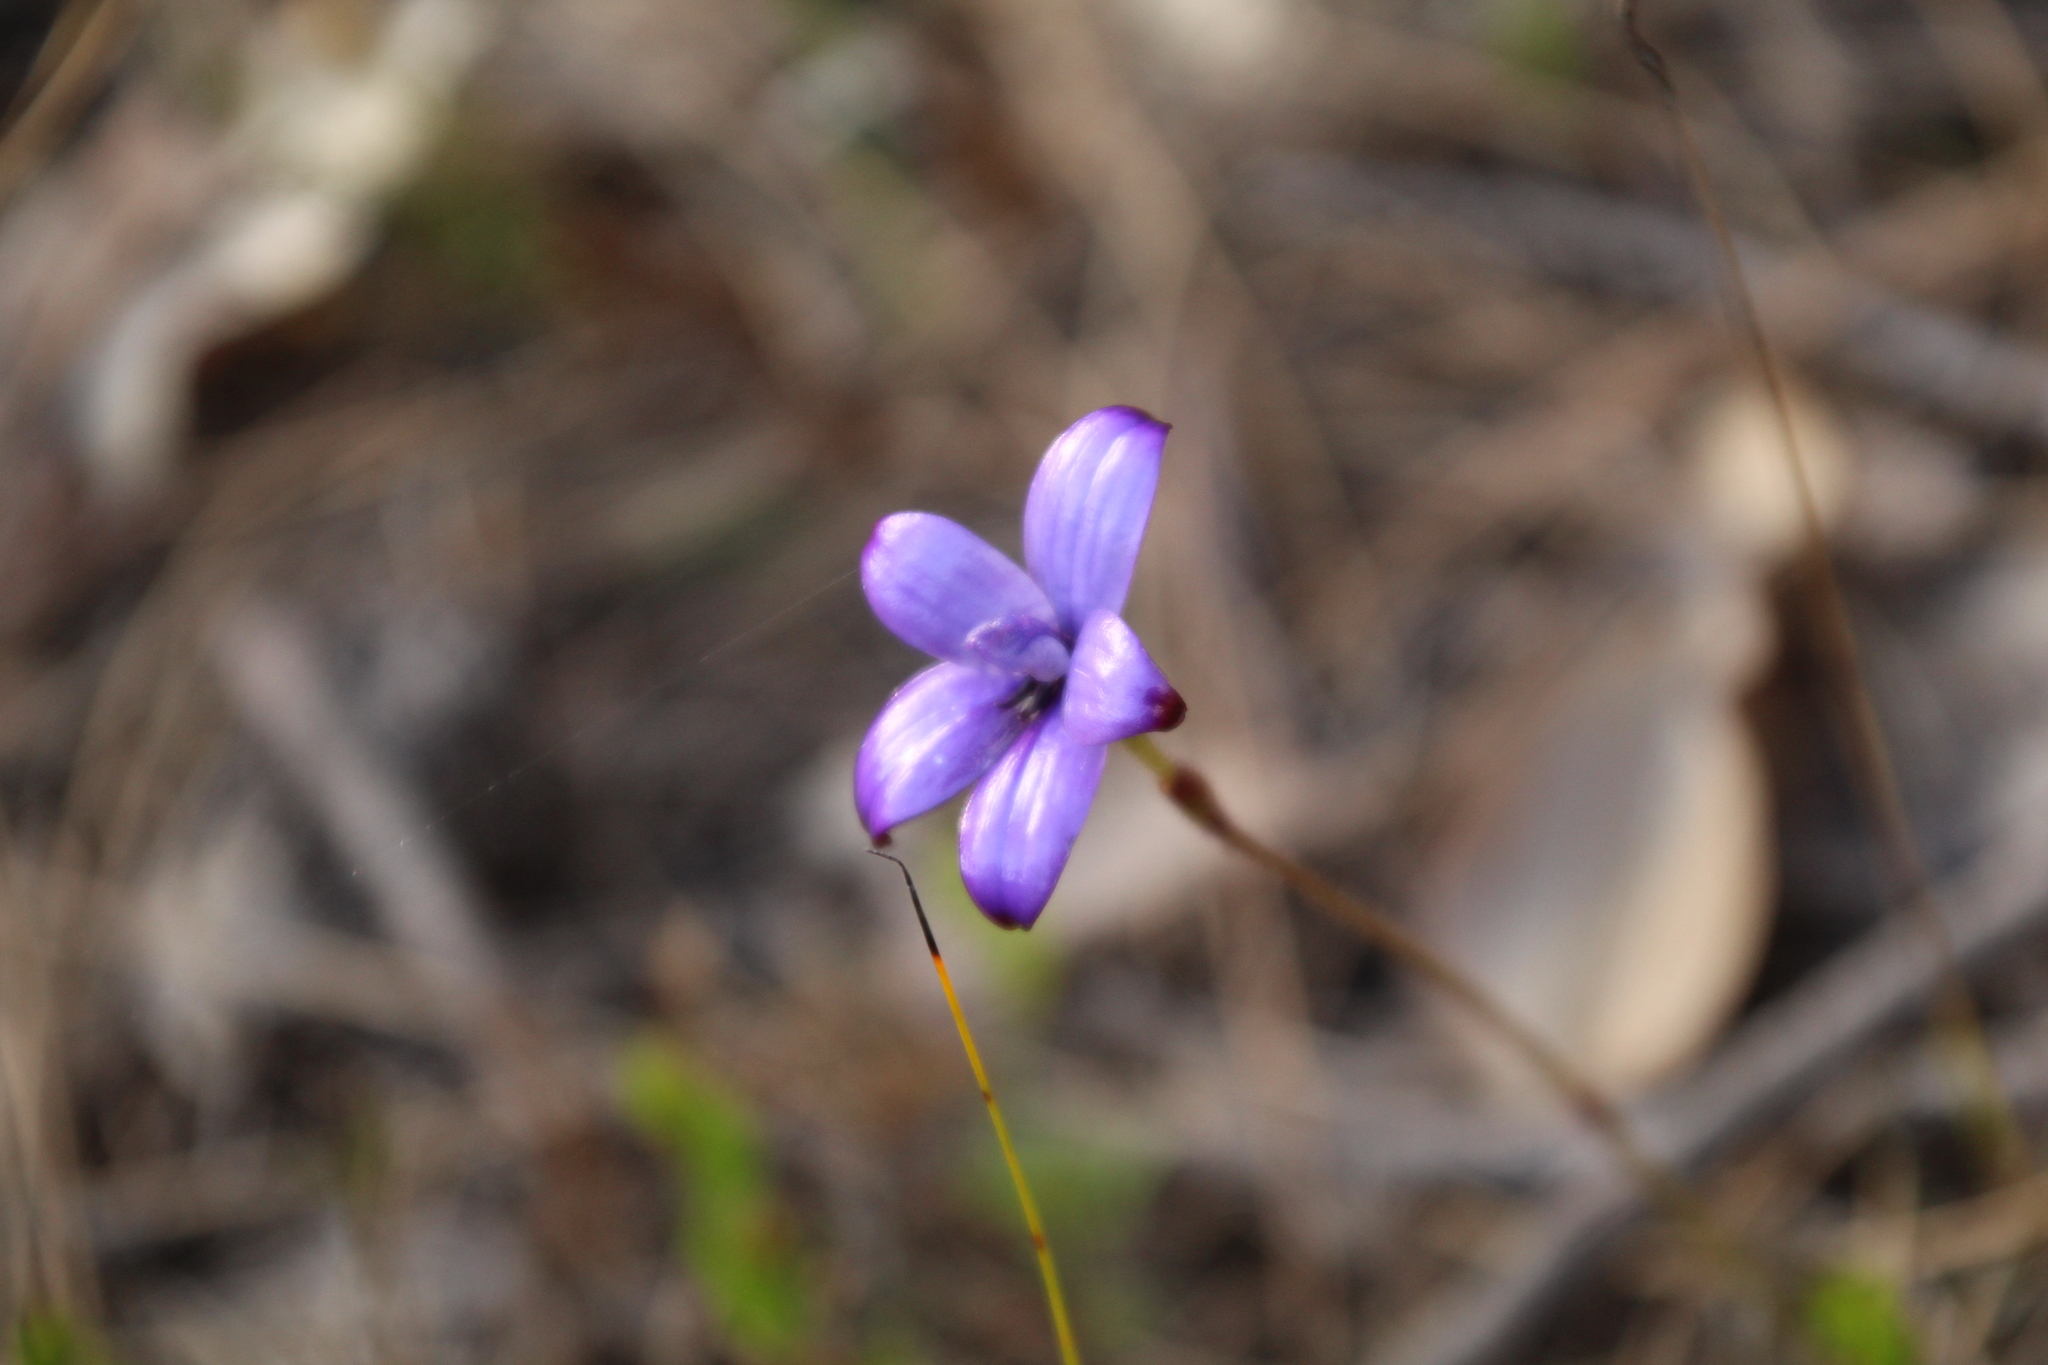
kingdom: Plantae
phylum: Tracheophyta
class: Liliopsida
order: Asparagales
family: Orchidaceae
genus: Caladenia
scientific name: Caladenia brunonis
